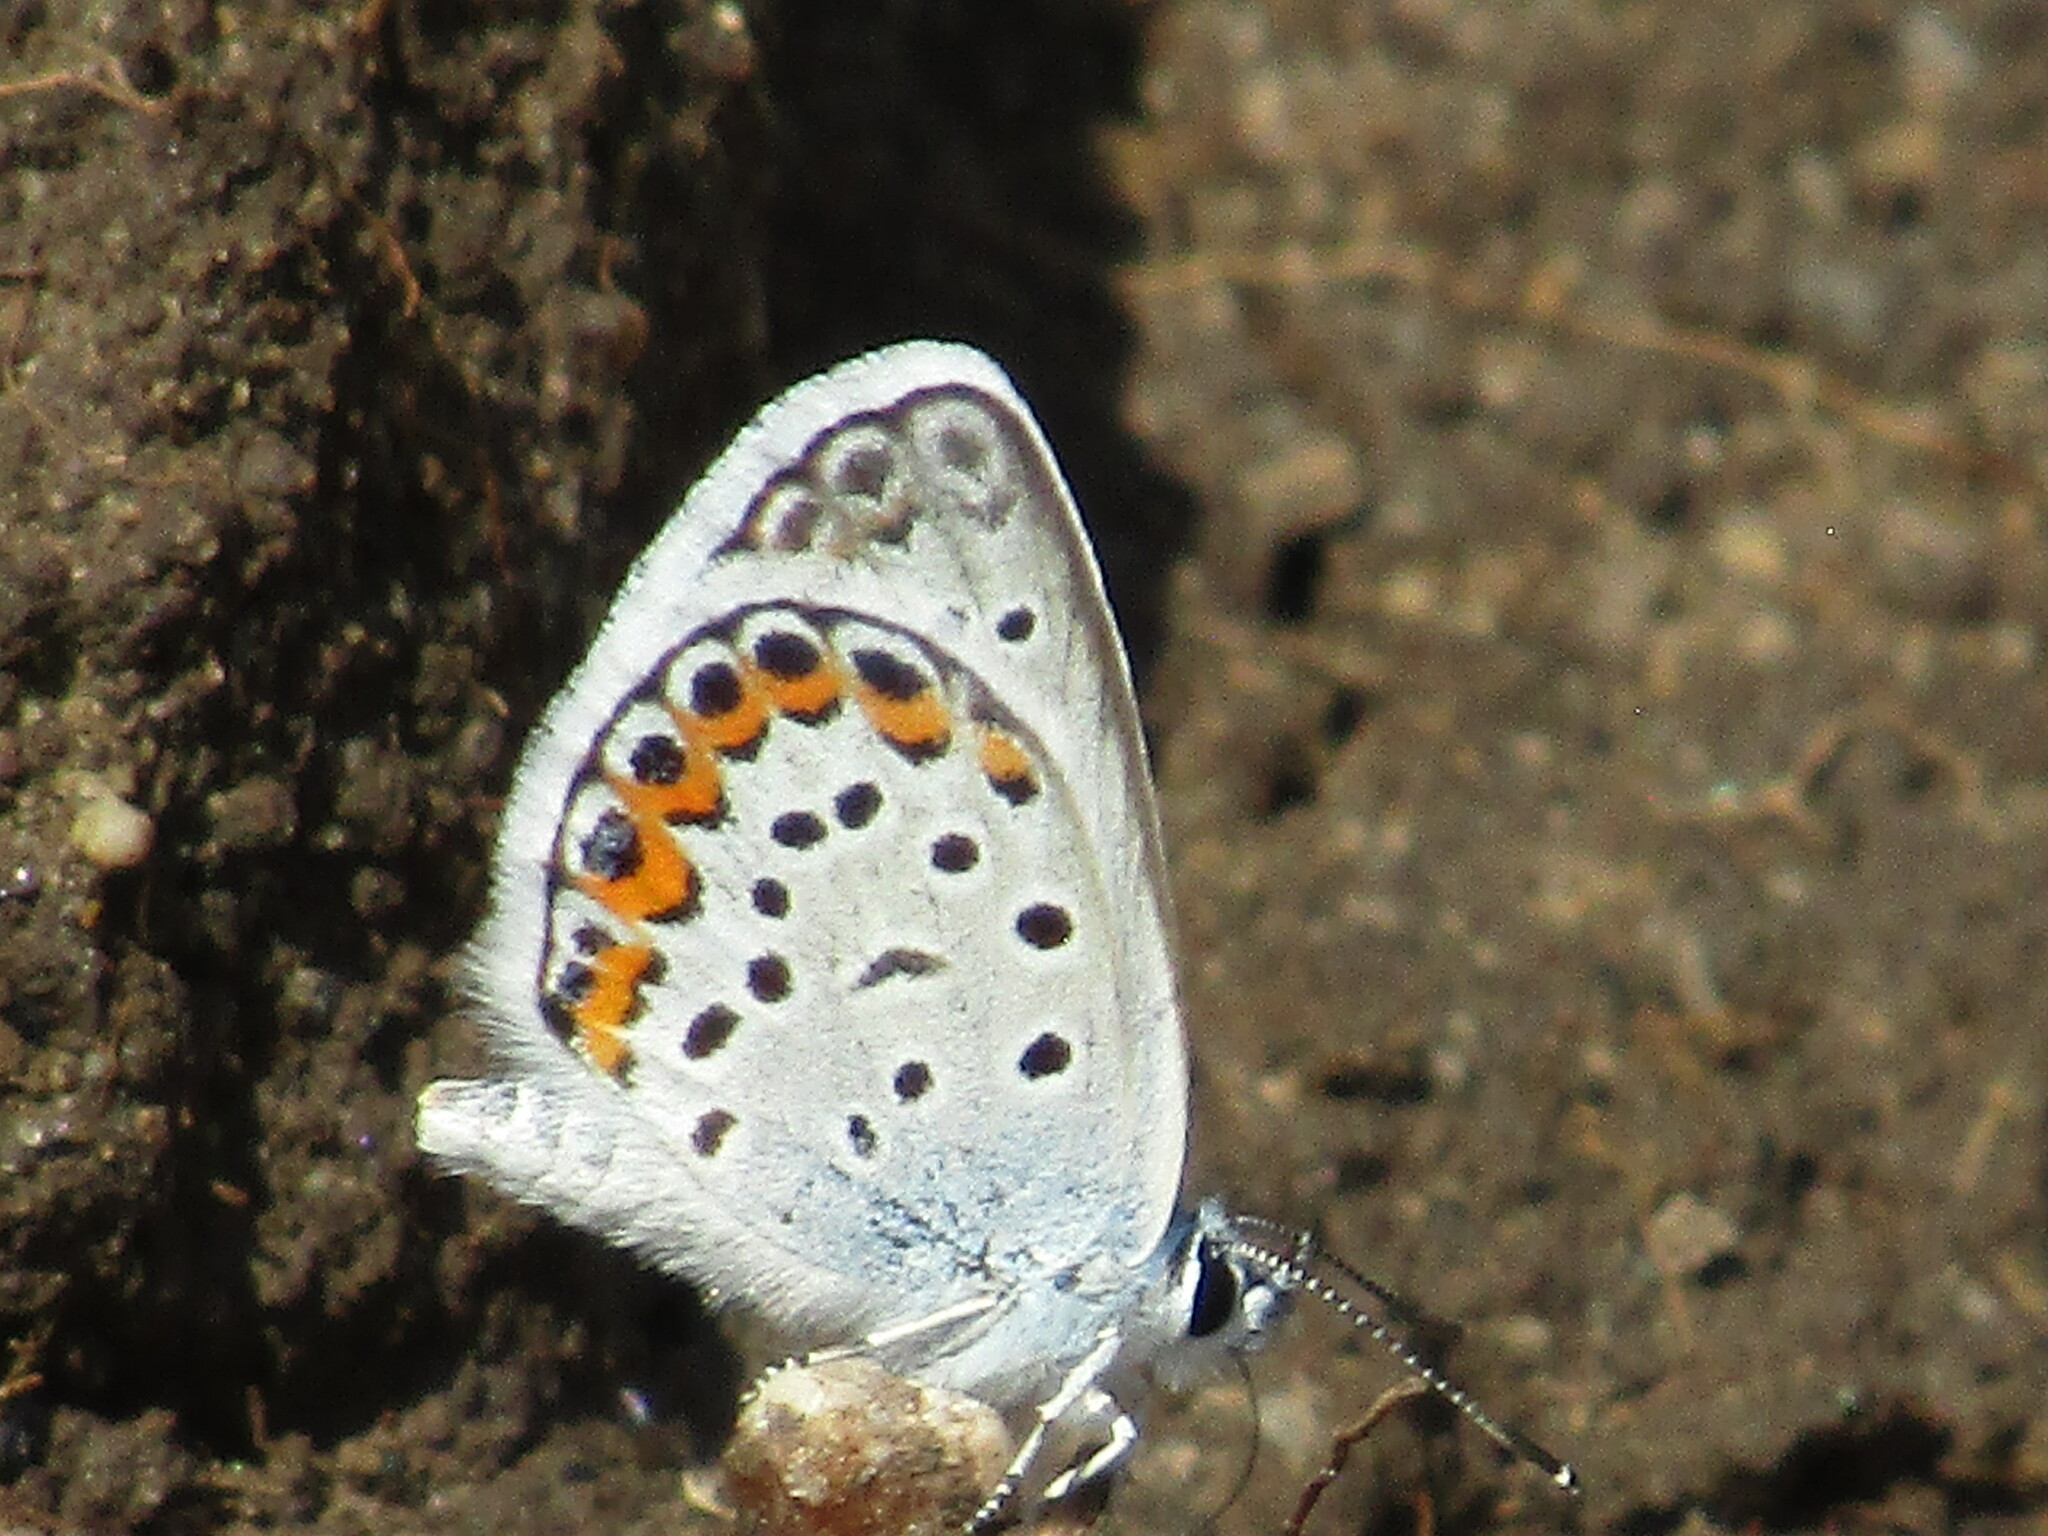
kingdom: Animalia
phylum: Arthropoda
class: Insecta
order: Lepidoptera
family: Lycaenidae
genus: Plebejus
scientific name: Plebejus argus
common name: Silver-studded blue
